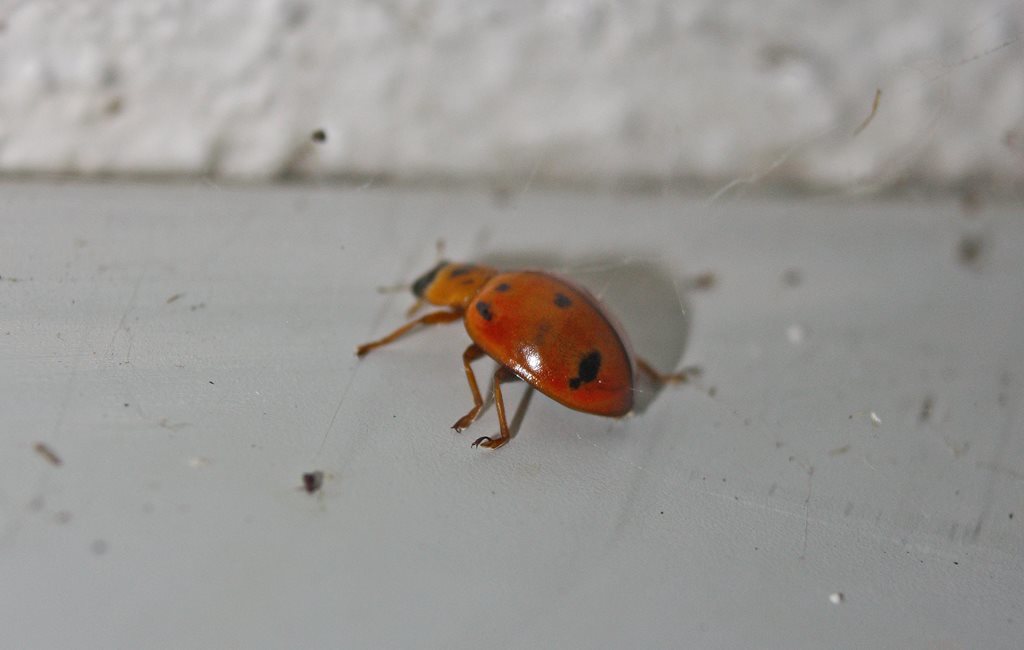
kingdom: Animalia
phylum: Arthropoda
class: Insecta
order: Coleoptera
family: Coccinellidae
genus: Harmonia
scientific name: Harmonia octomaculata
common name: Lady beetle
